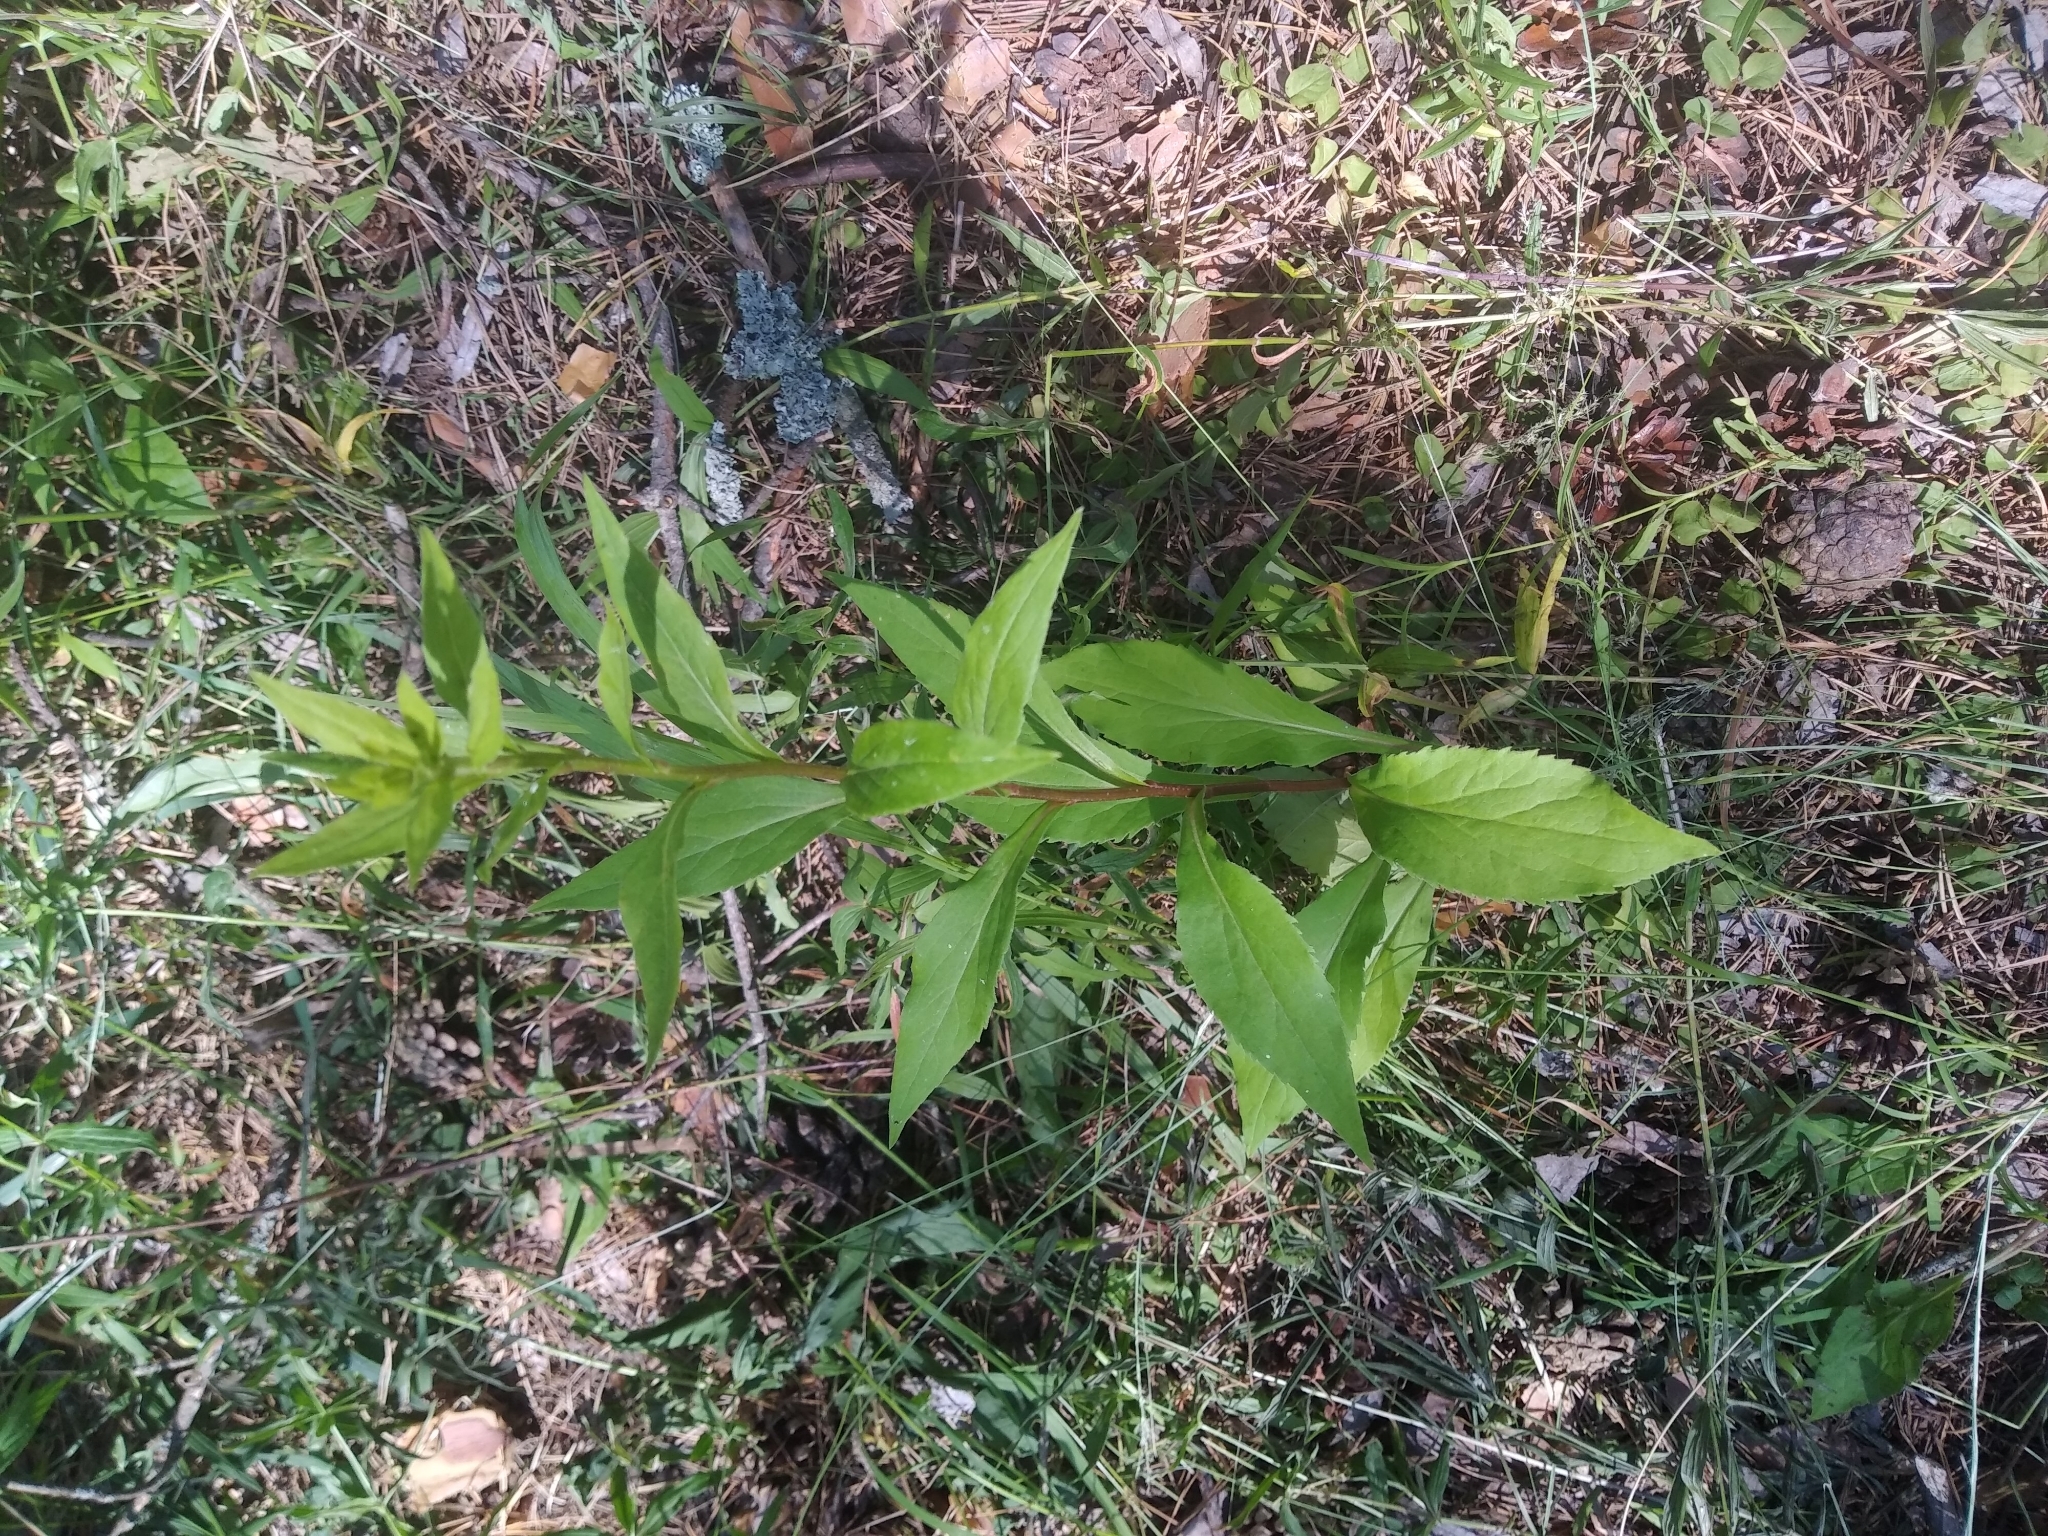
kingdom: Plantae
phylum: Tracheophyta
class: Magnoliopsida
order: Asterales
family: Asteraceae
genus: Solidago
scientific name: Solidago virgaurea
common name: Goldenrod
